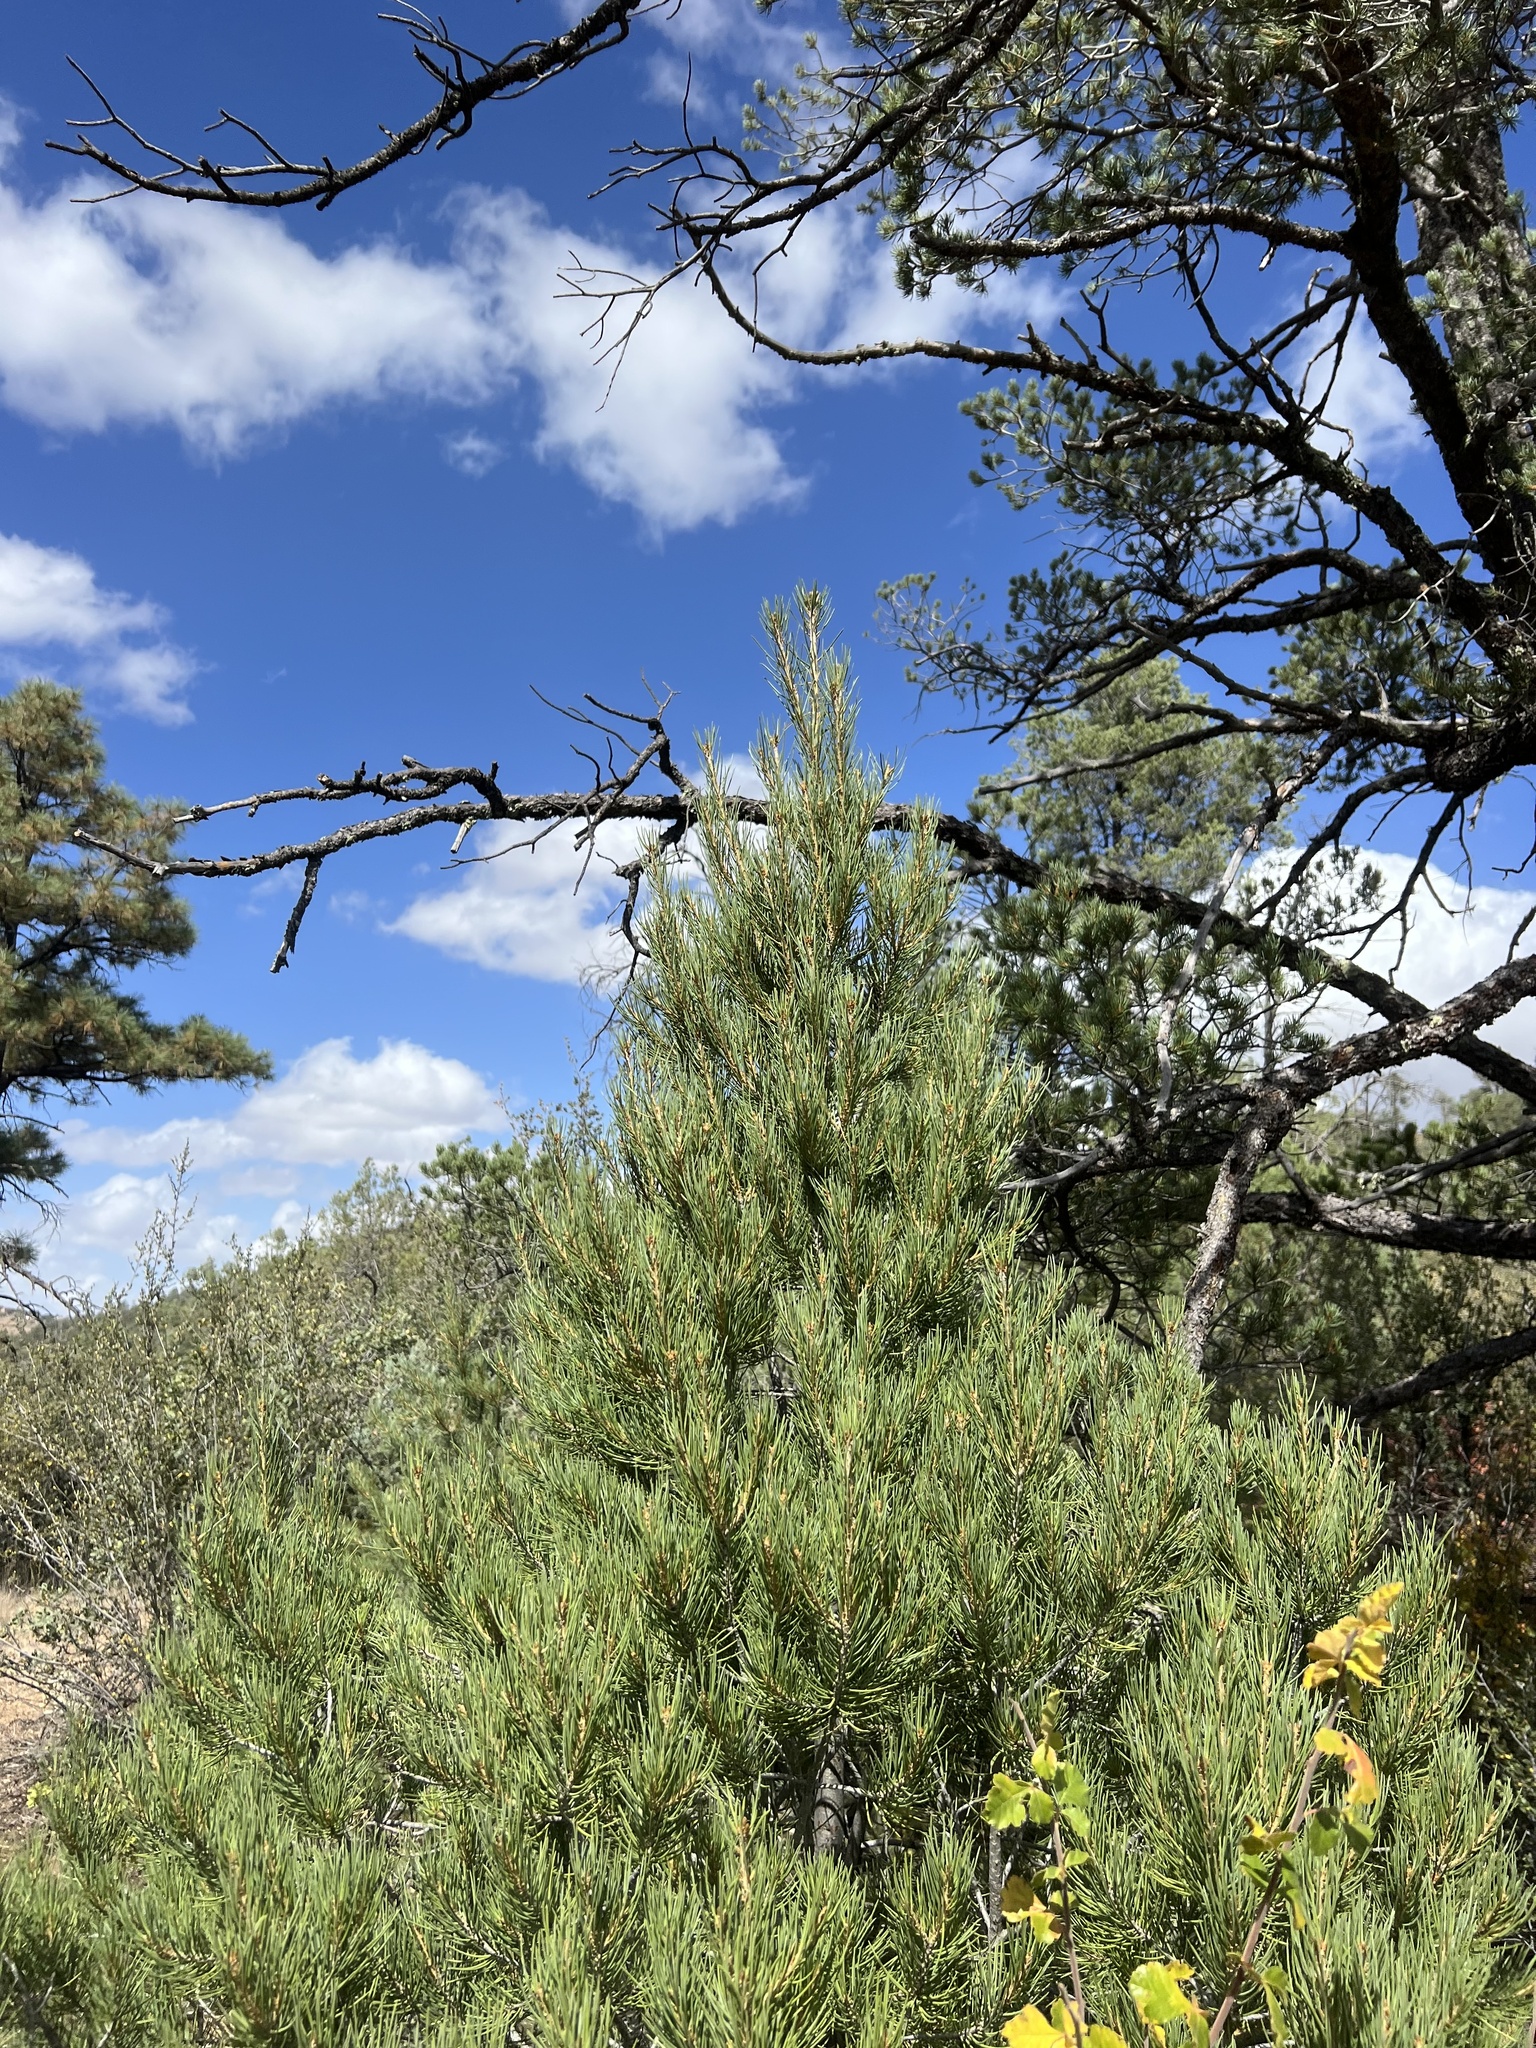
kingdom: Plantae
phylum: Tracheophyta
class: Pinopsida
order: Pinales
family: Pinaceae
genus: Pinus
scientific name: Pinus monophylla
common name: One-leaved nut pine
